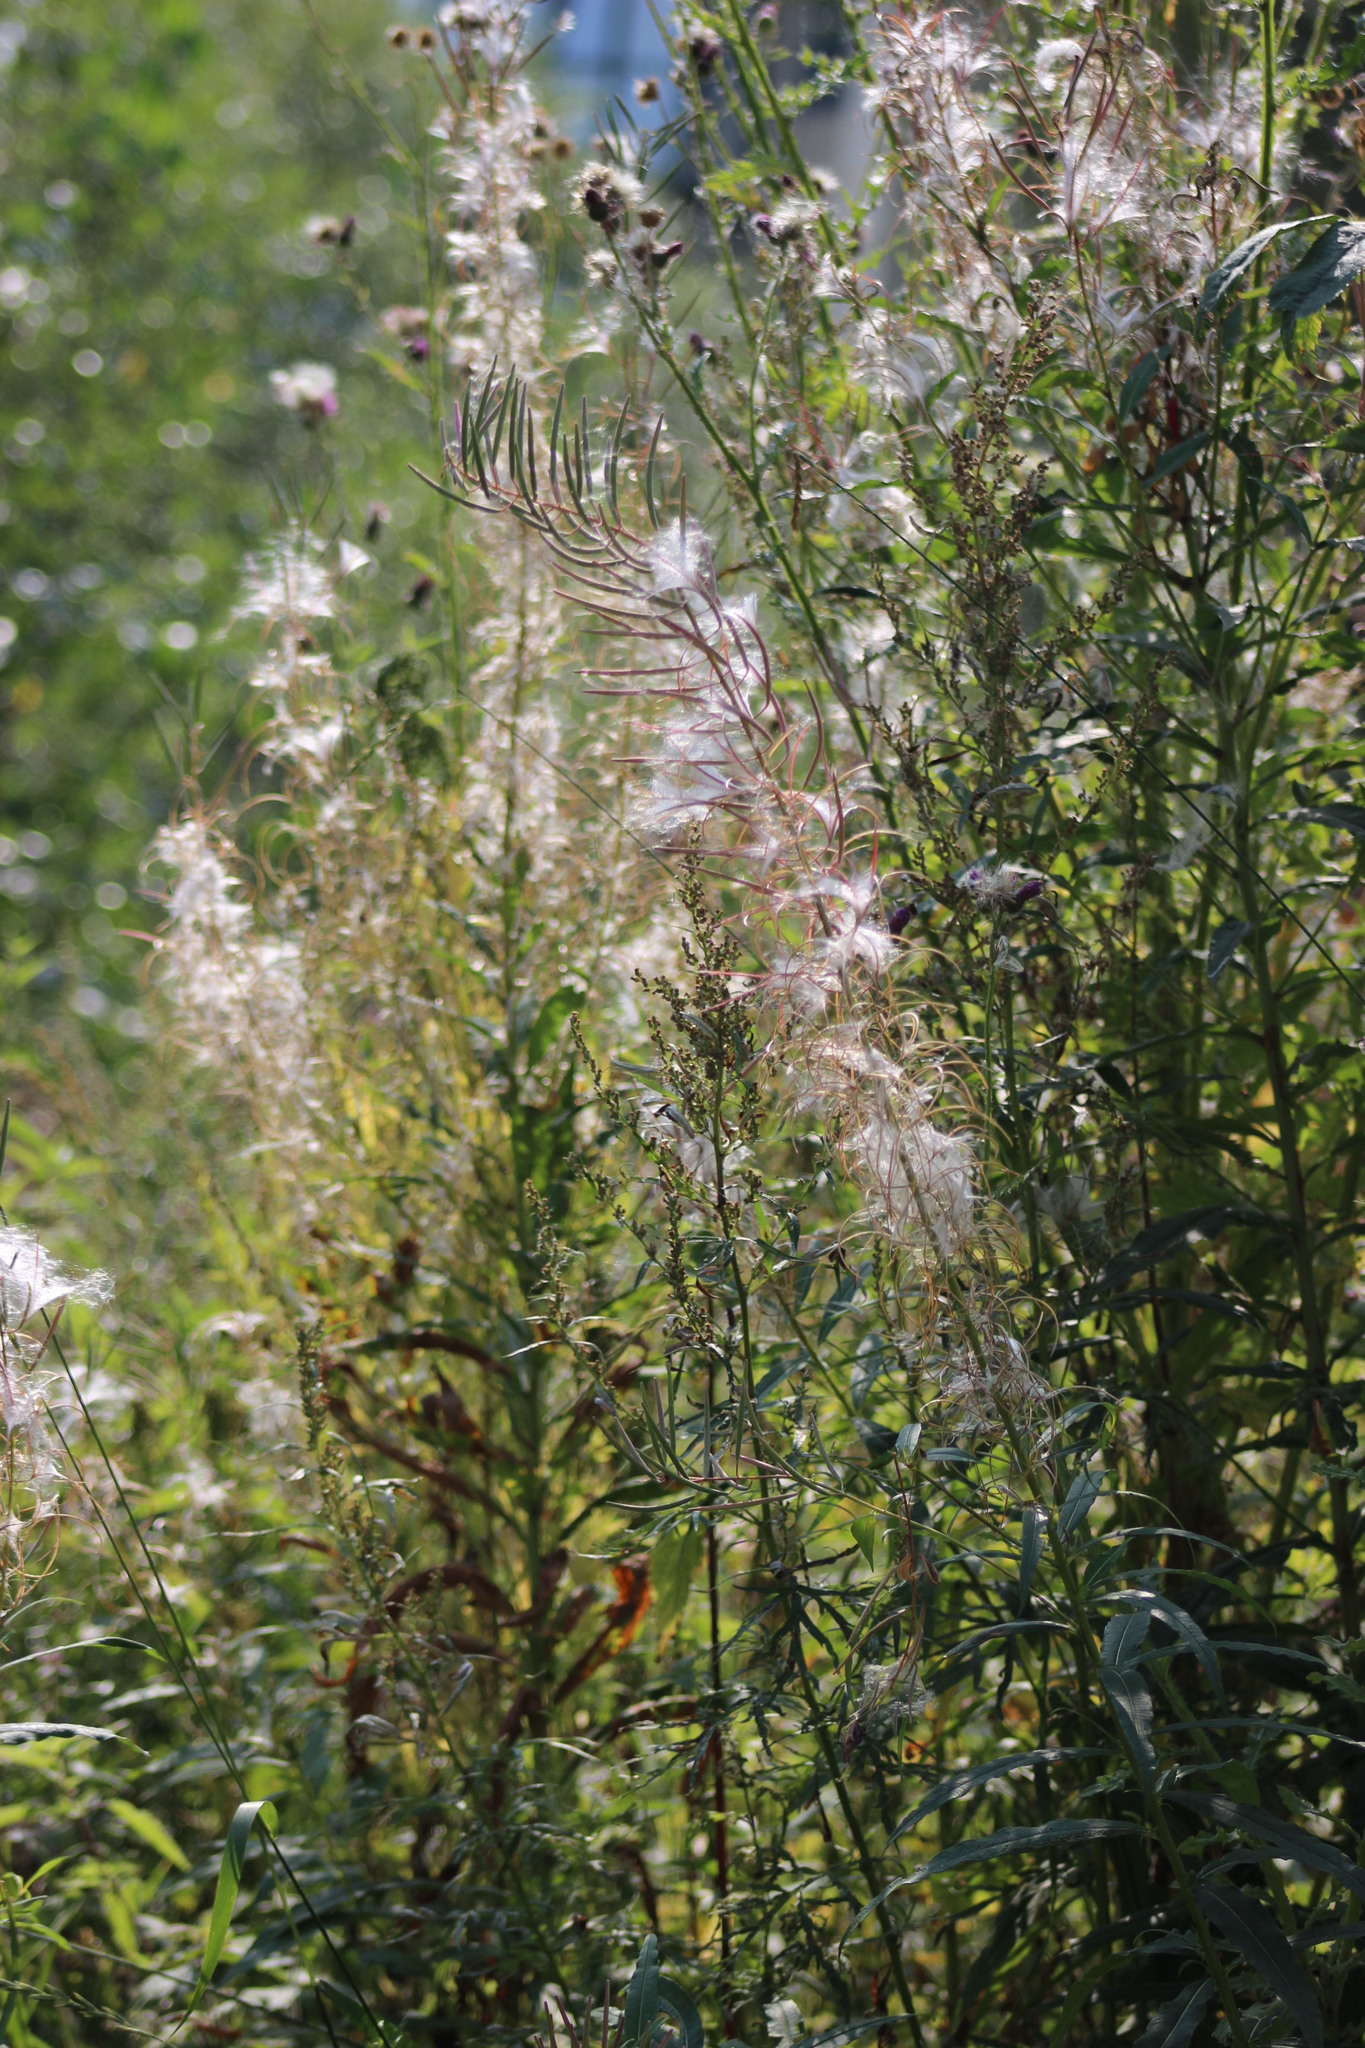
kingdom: Plantae
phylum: Tracheophyta
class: Magnoliopsida
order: Myrtales
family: Onagraceae
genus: Chamaenerion
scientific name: Chamaenerion angustifolium
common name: Fireweed
